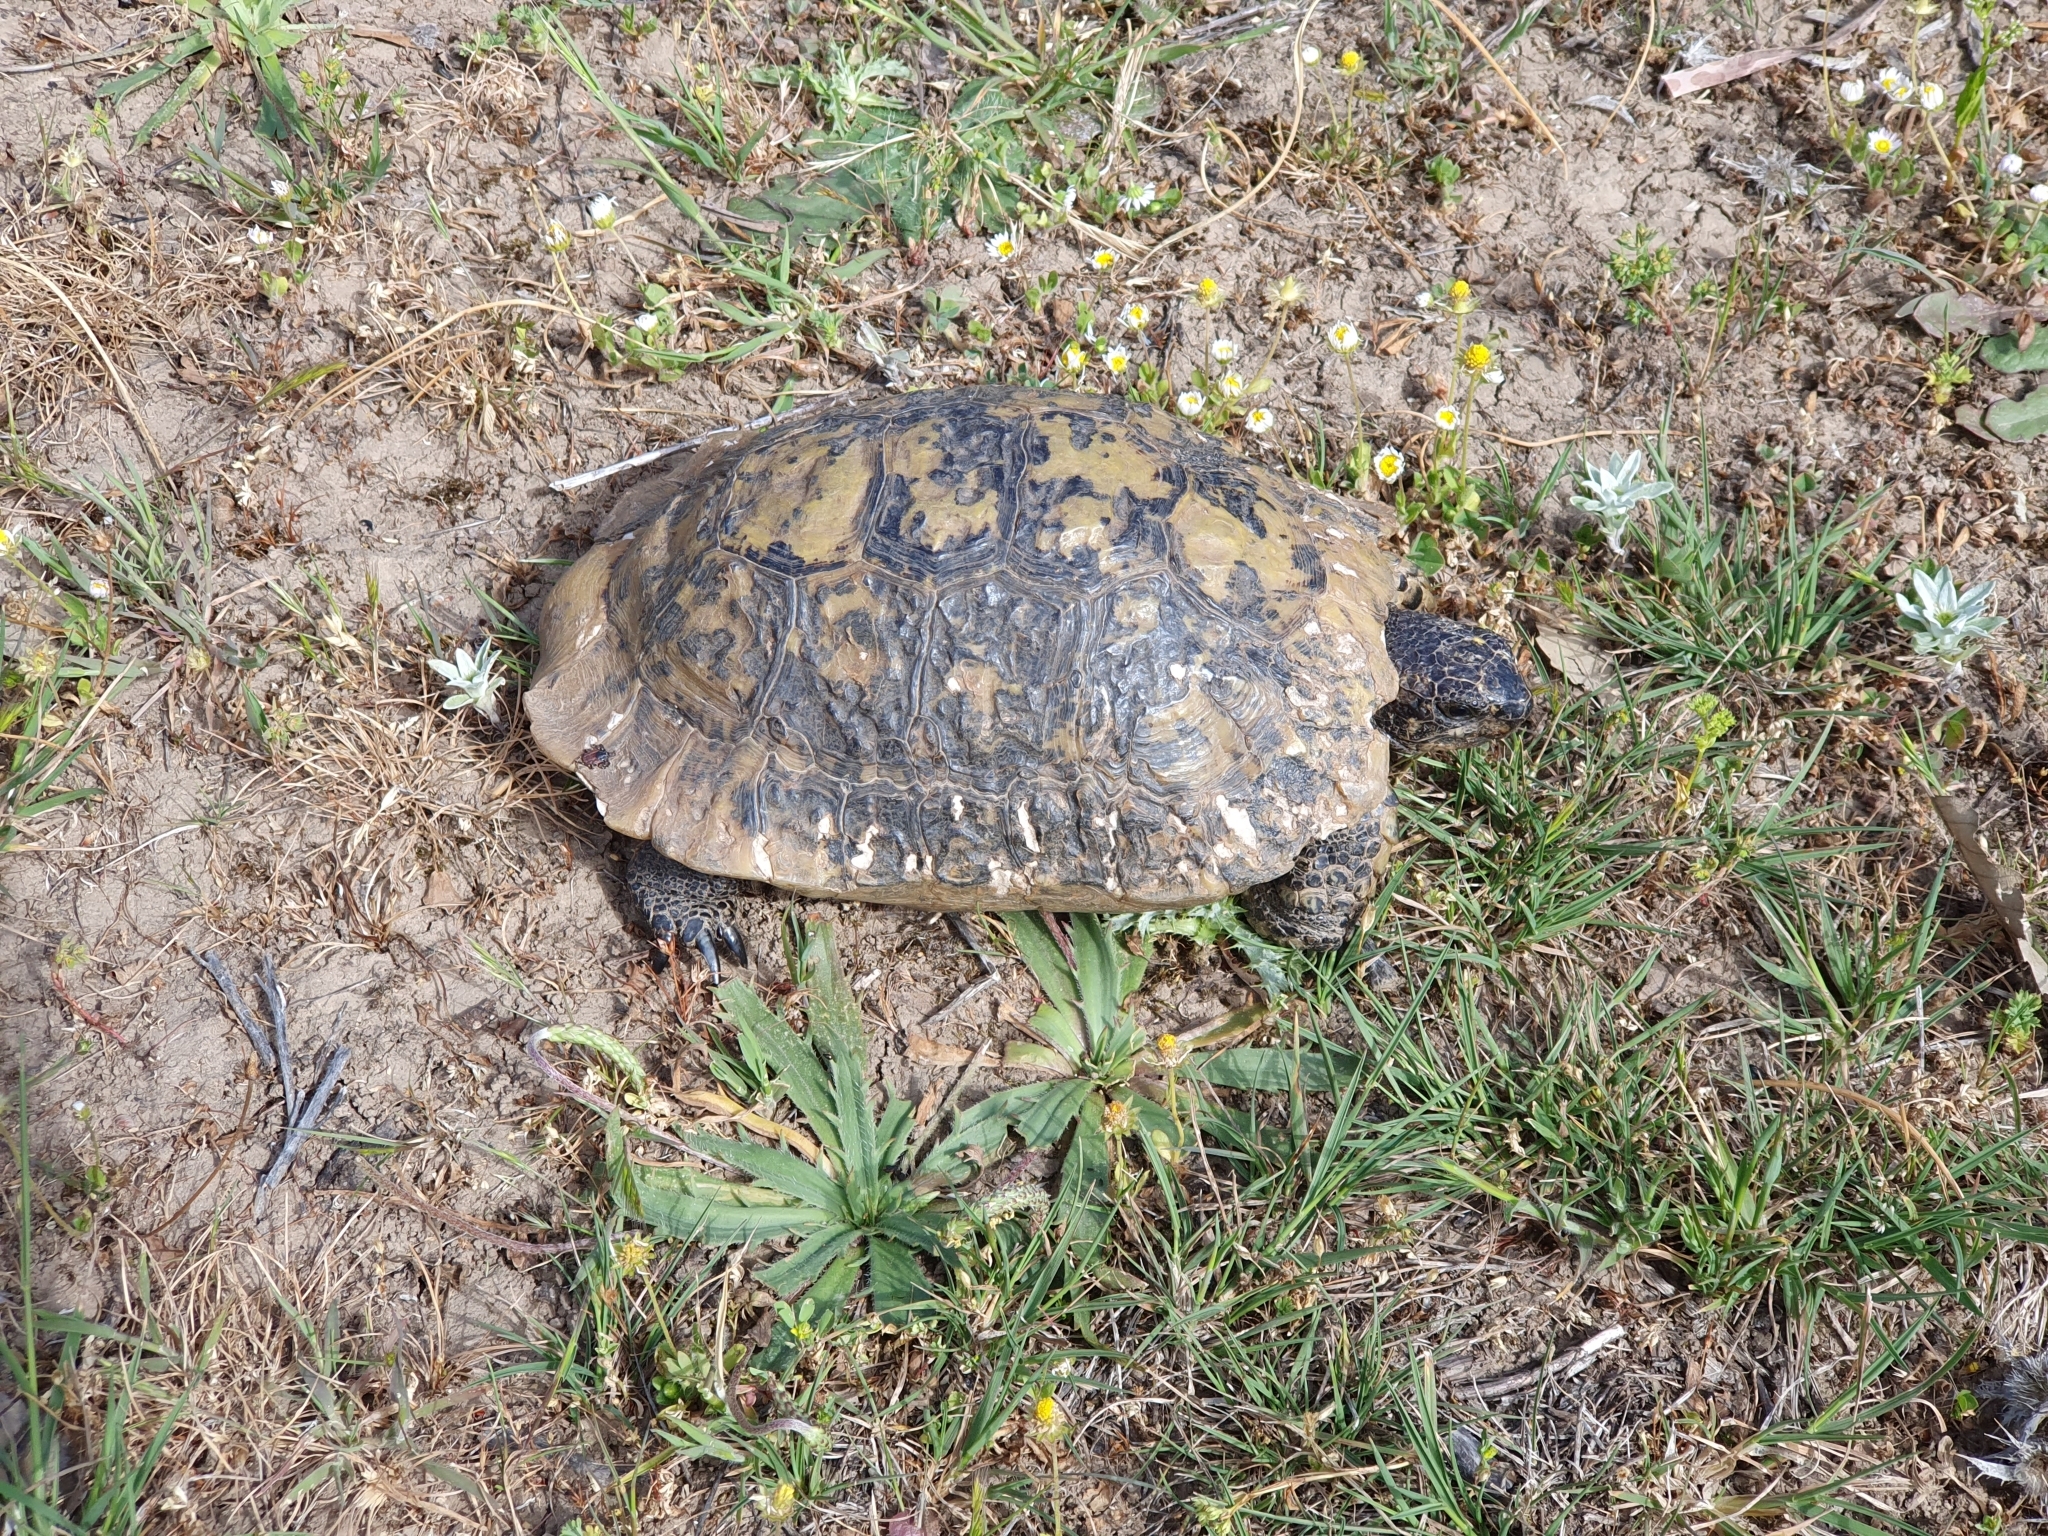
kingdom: Animalia
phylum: Chordata
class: Testudines
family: Testudinidae
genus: Testudo
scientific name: Testudo graeca
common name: Common tortoise
